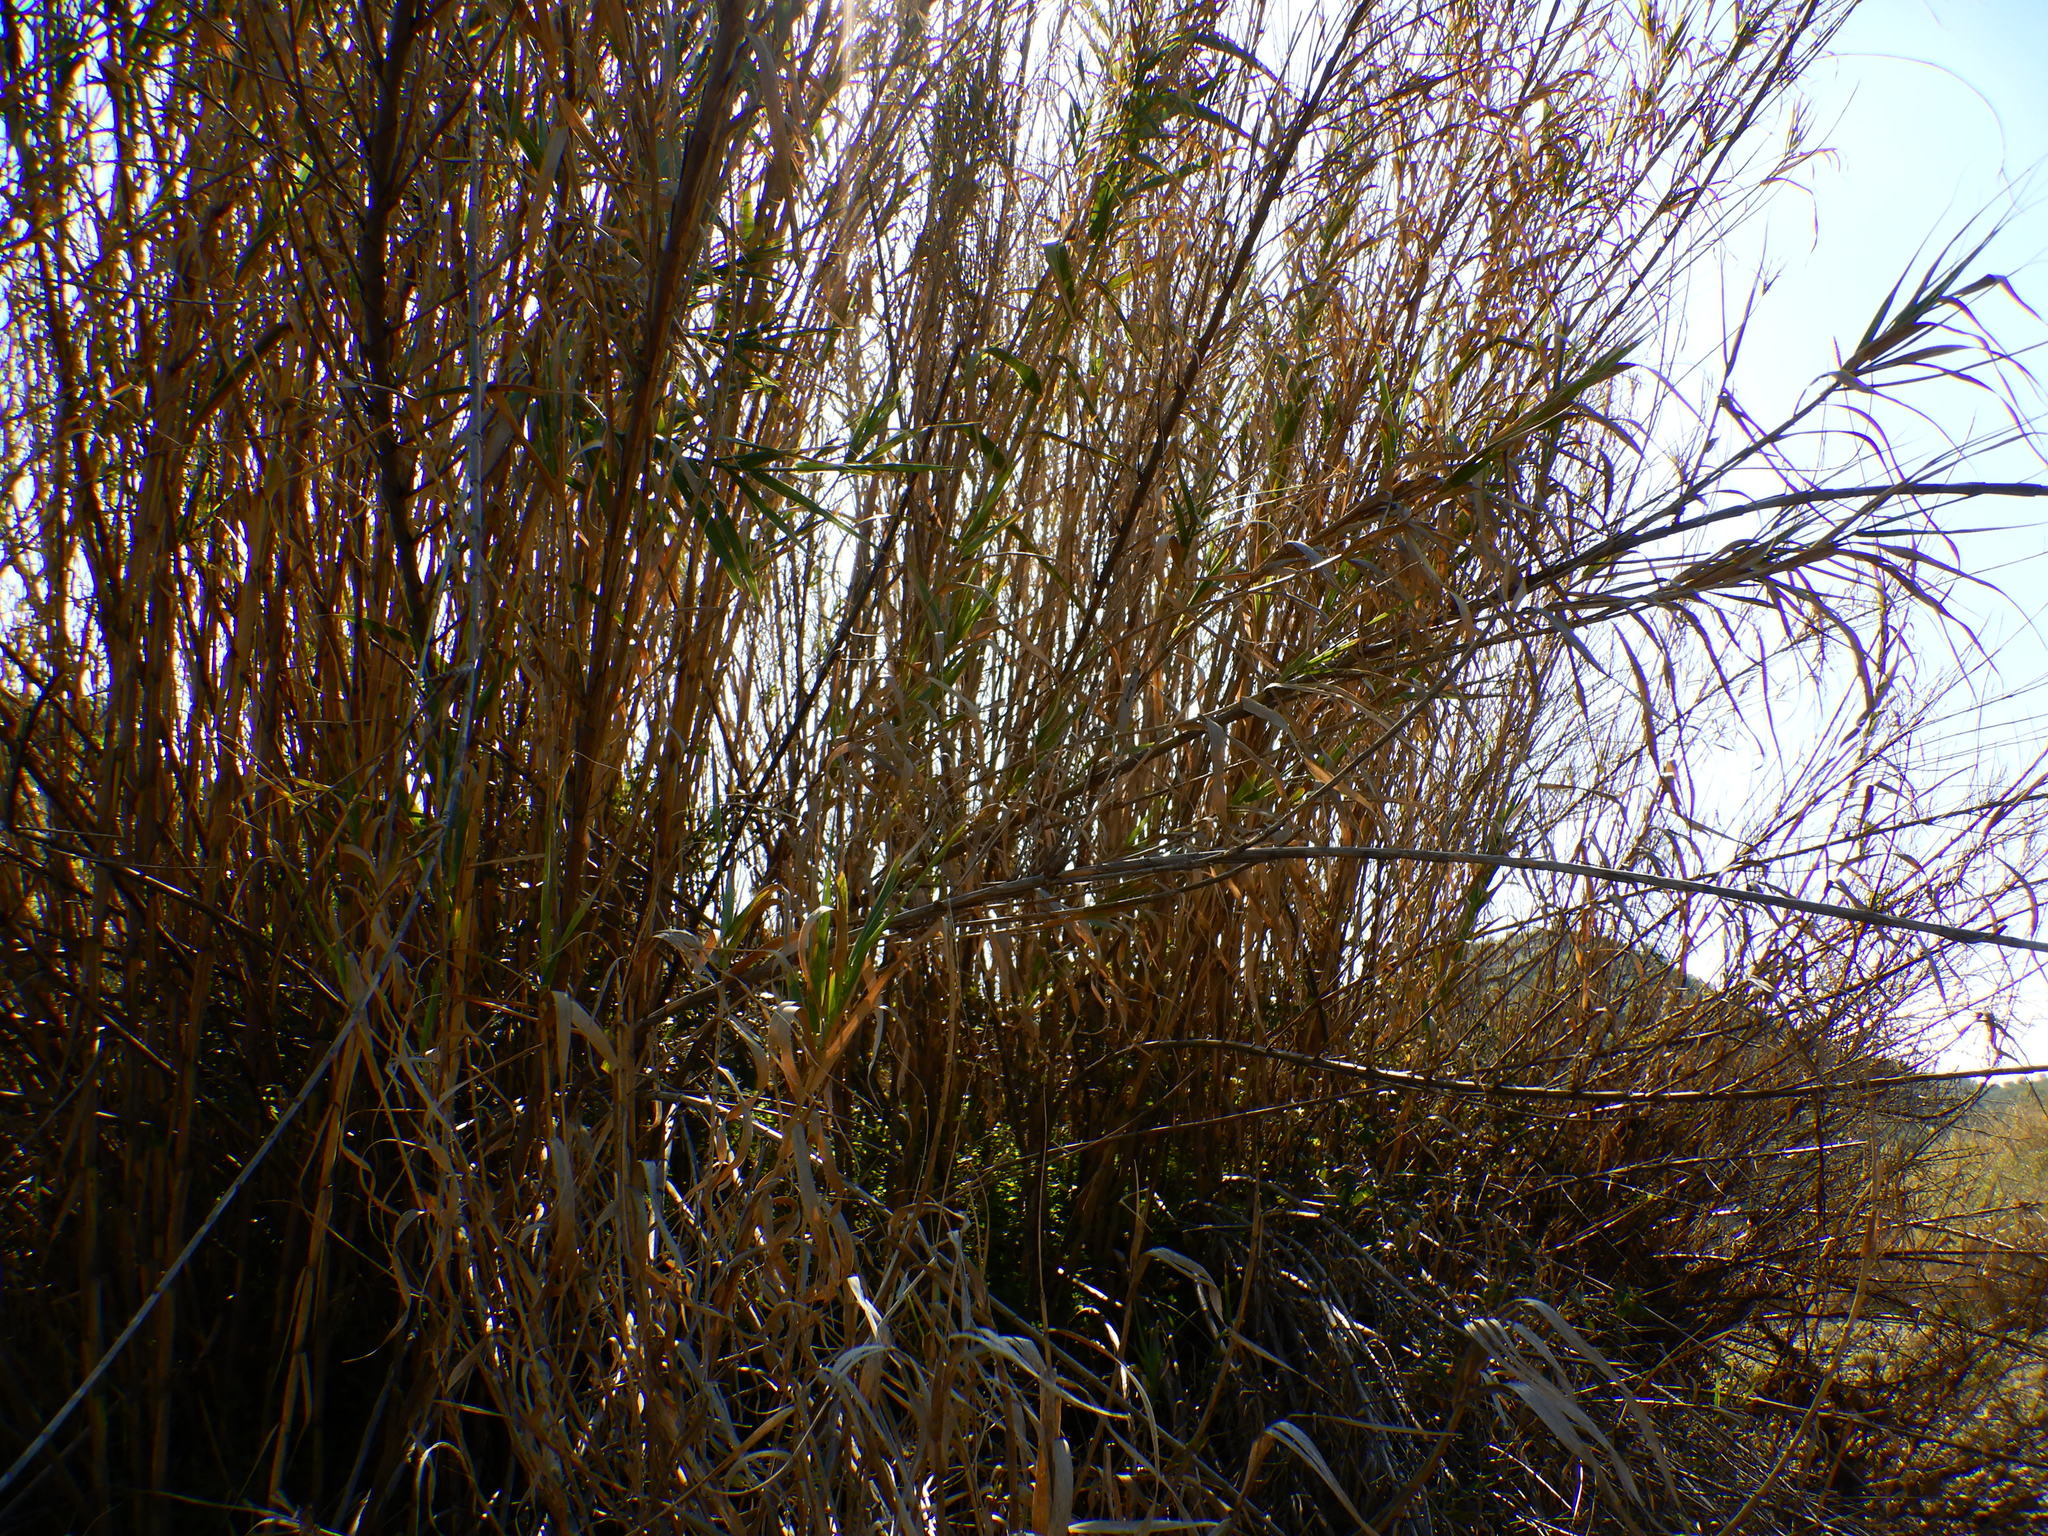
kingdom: Plantae
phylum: Tracheophyta
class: Liliopsida
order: Poales
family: Poaceae
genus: Arundo
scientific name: Arundo donax
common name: Giant reed
